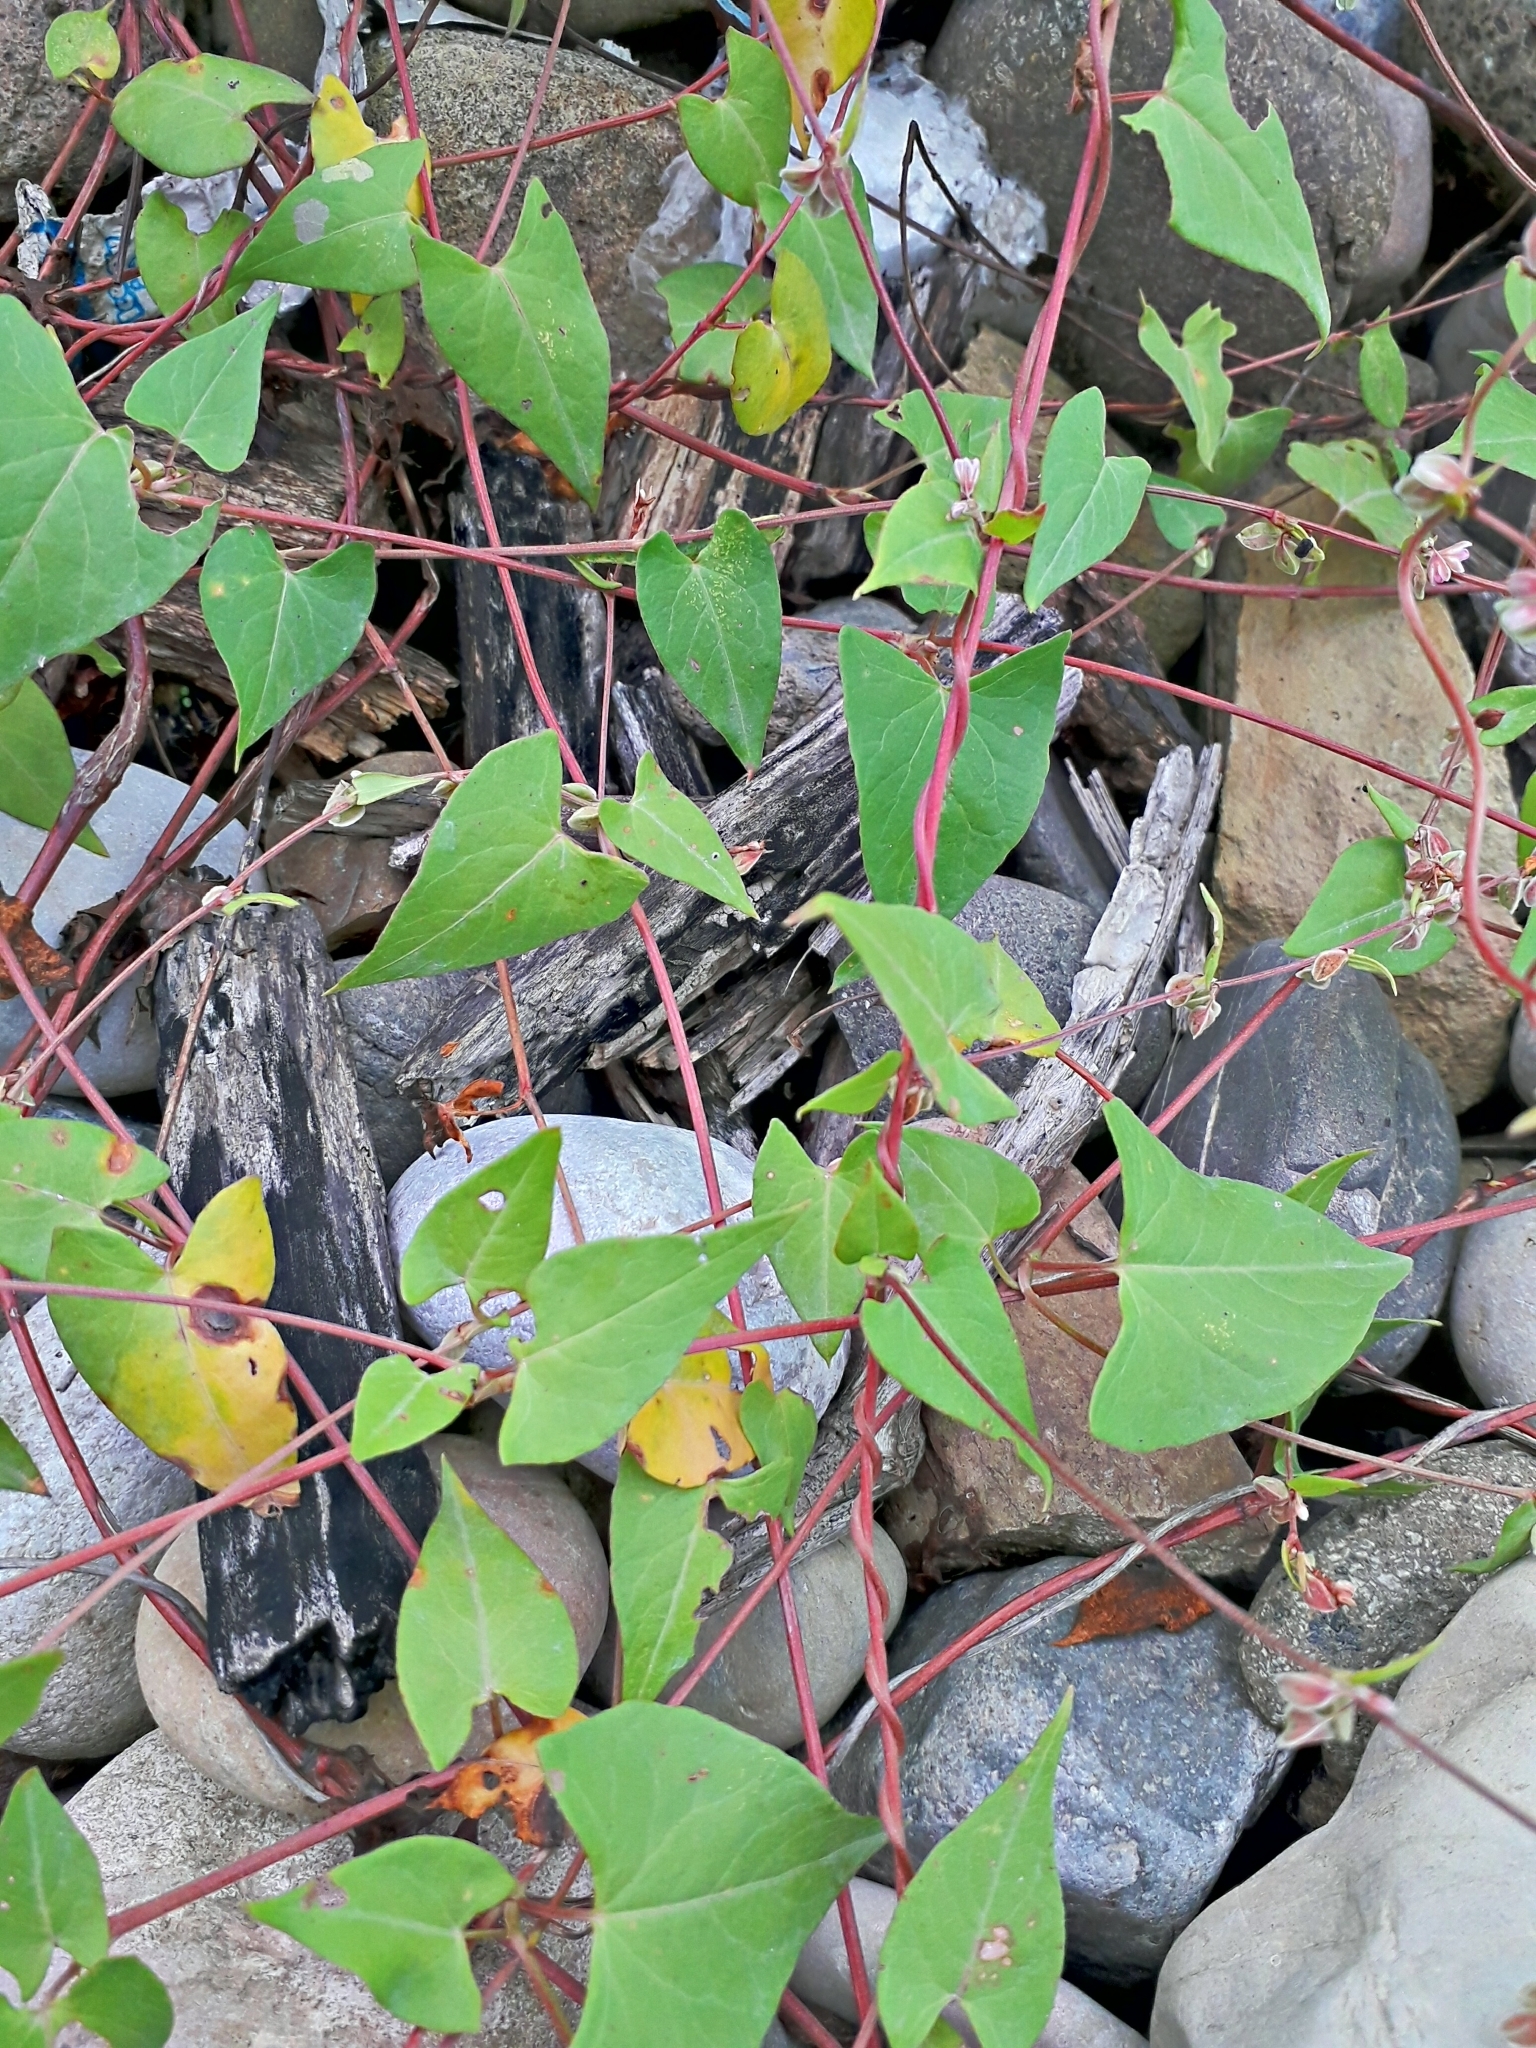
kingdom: Plantae
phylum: Tracheophyta
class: Magnoliopsida
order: Caryophyllales
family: Polygonaceae
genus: Fallopia
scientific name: Fallopia dumetorum
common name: Copse-bindweed
